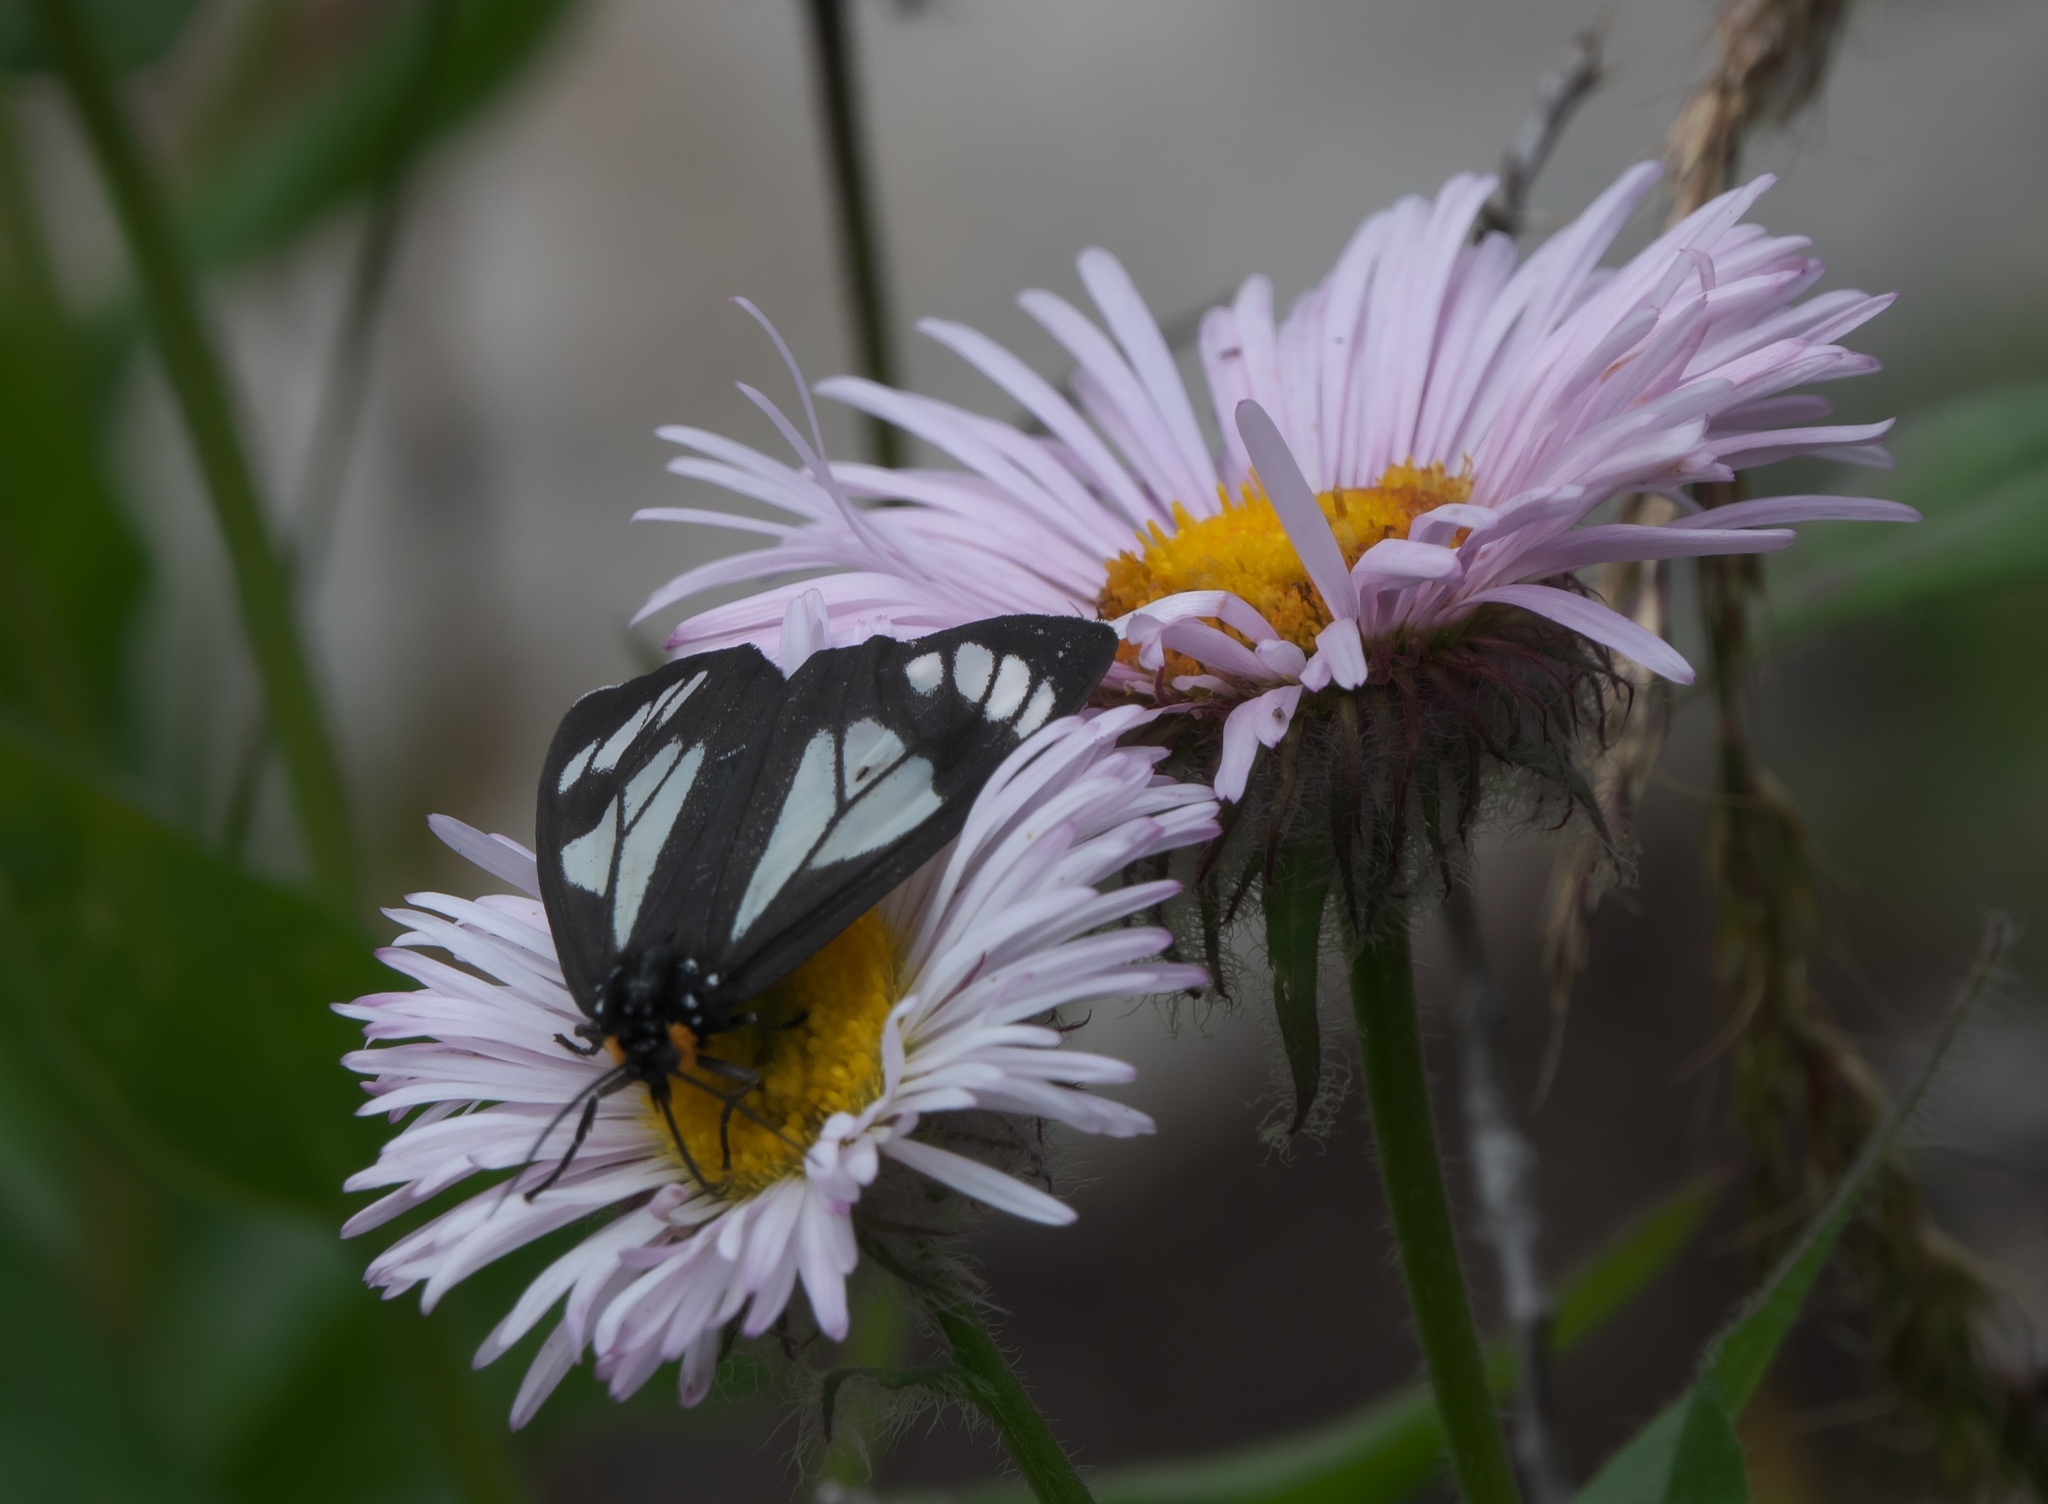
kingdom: Animalia
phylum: Arthropoda
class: Insecta
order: Lepidoptera
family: Erebidae
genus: Gnophaela
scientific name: Gnophaela vermiculata
